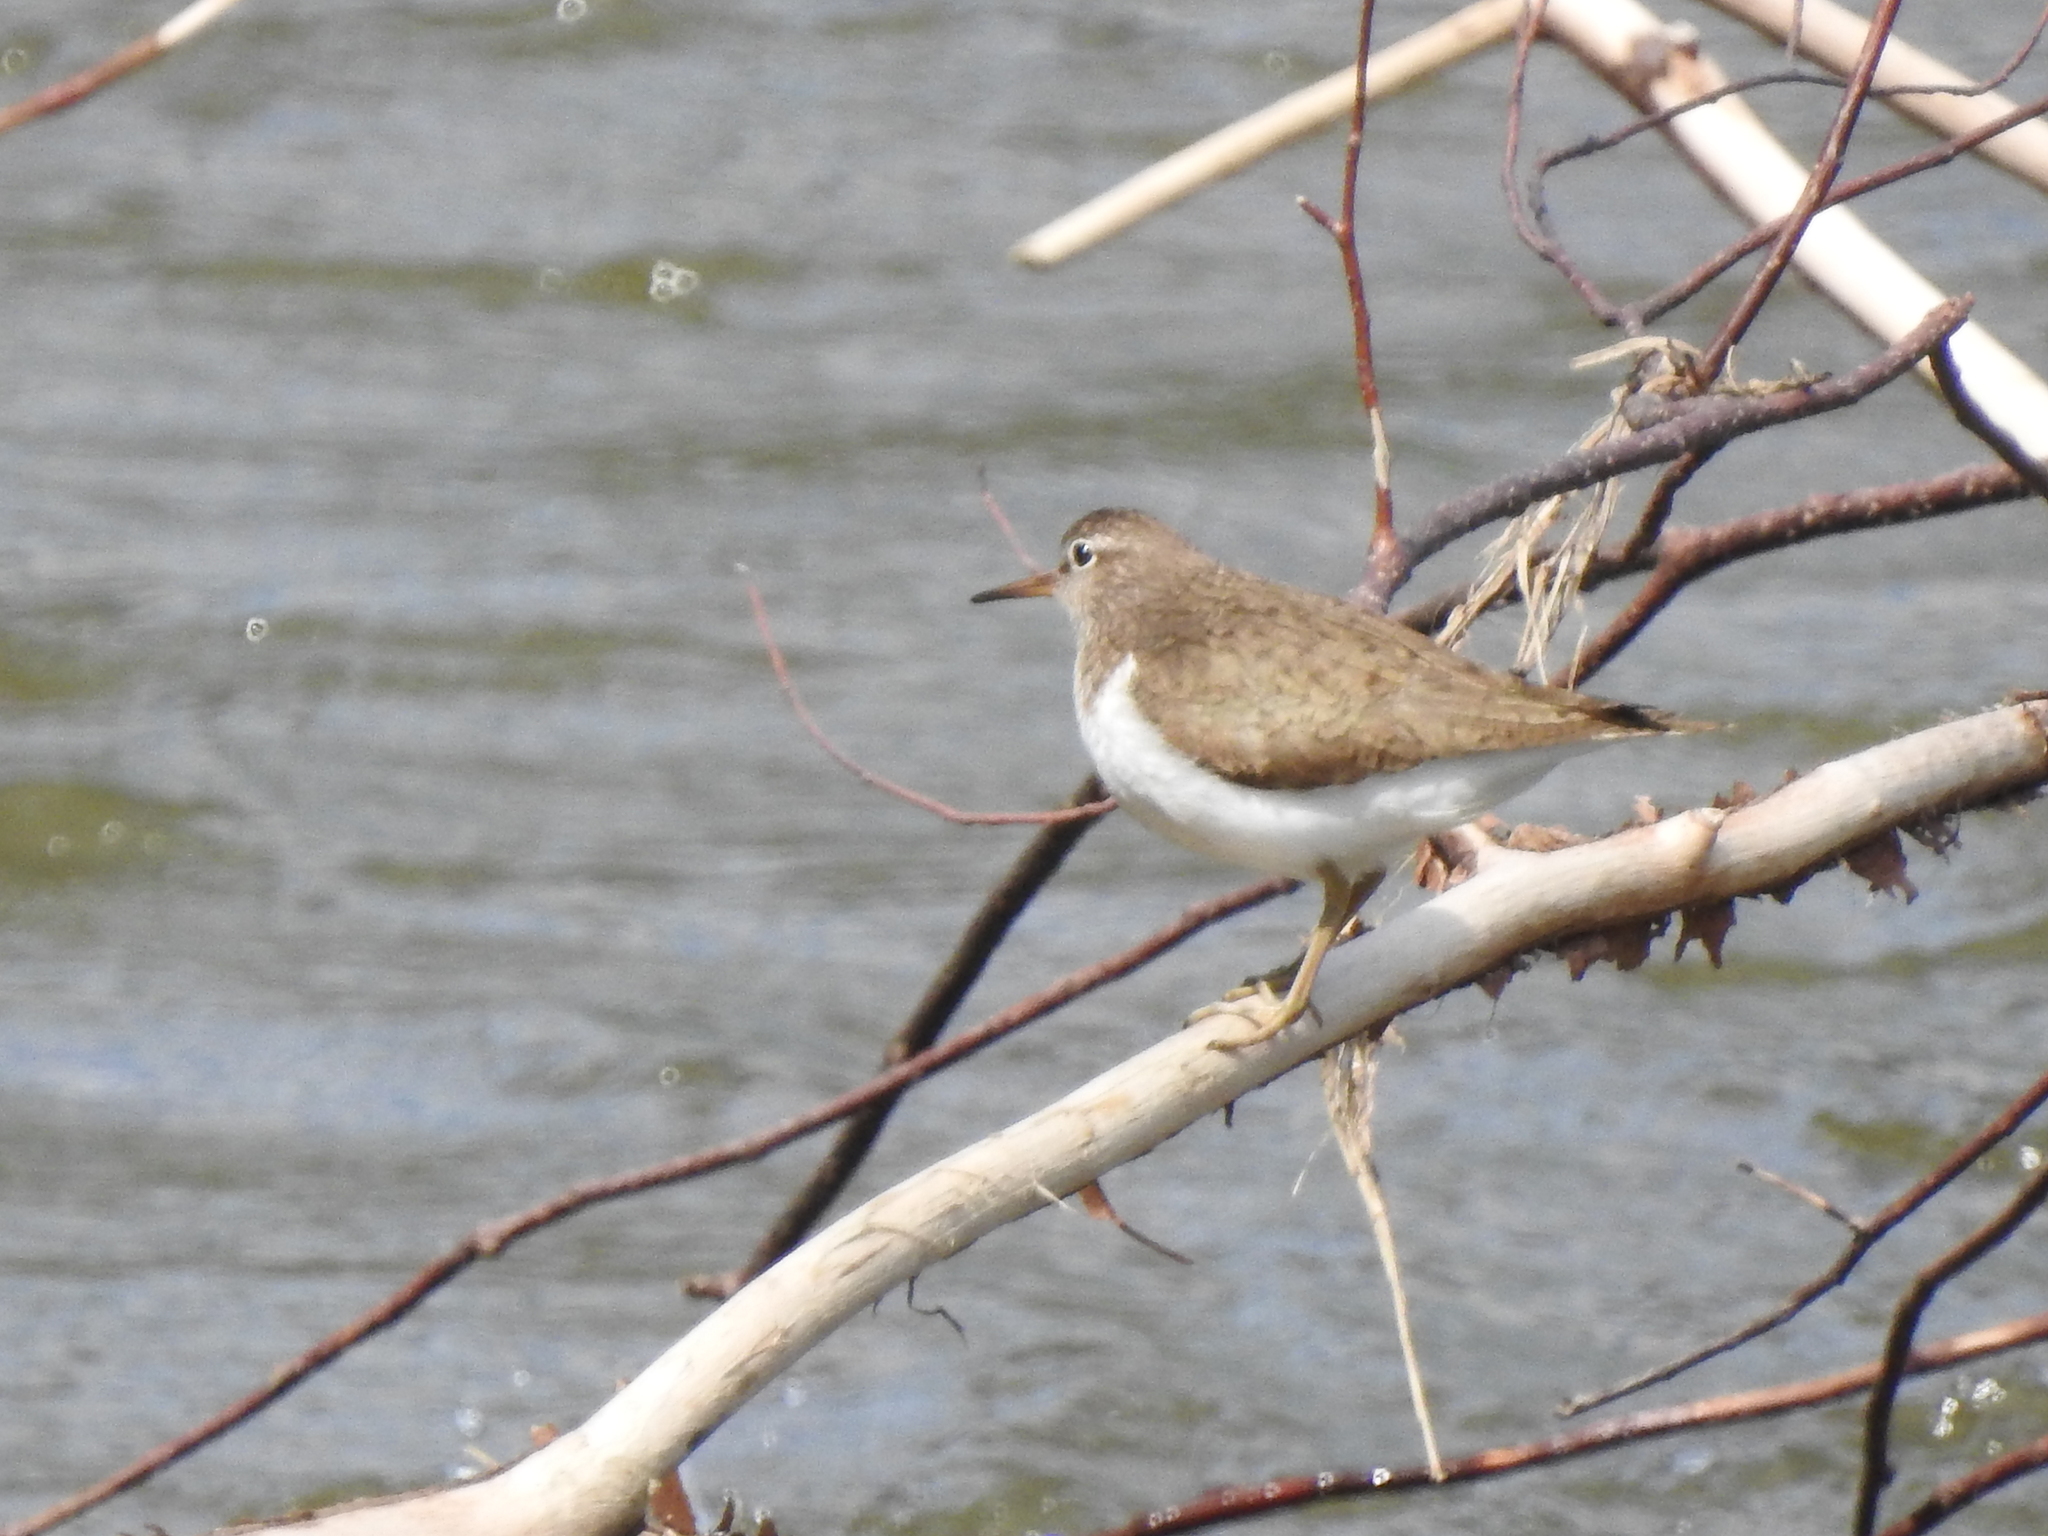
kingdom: Animalia
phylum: Chordata
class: Aves
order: Charadriiformes
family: Scolopacidae
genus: Actitis
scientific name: Actitis hypoleucos
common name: Common sandpiper
